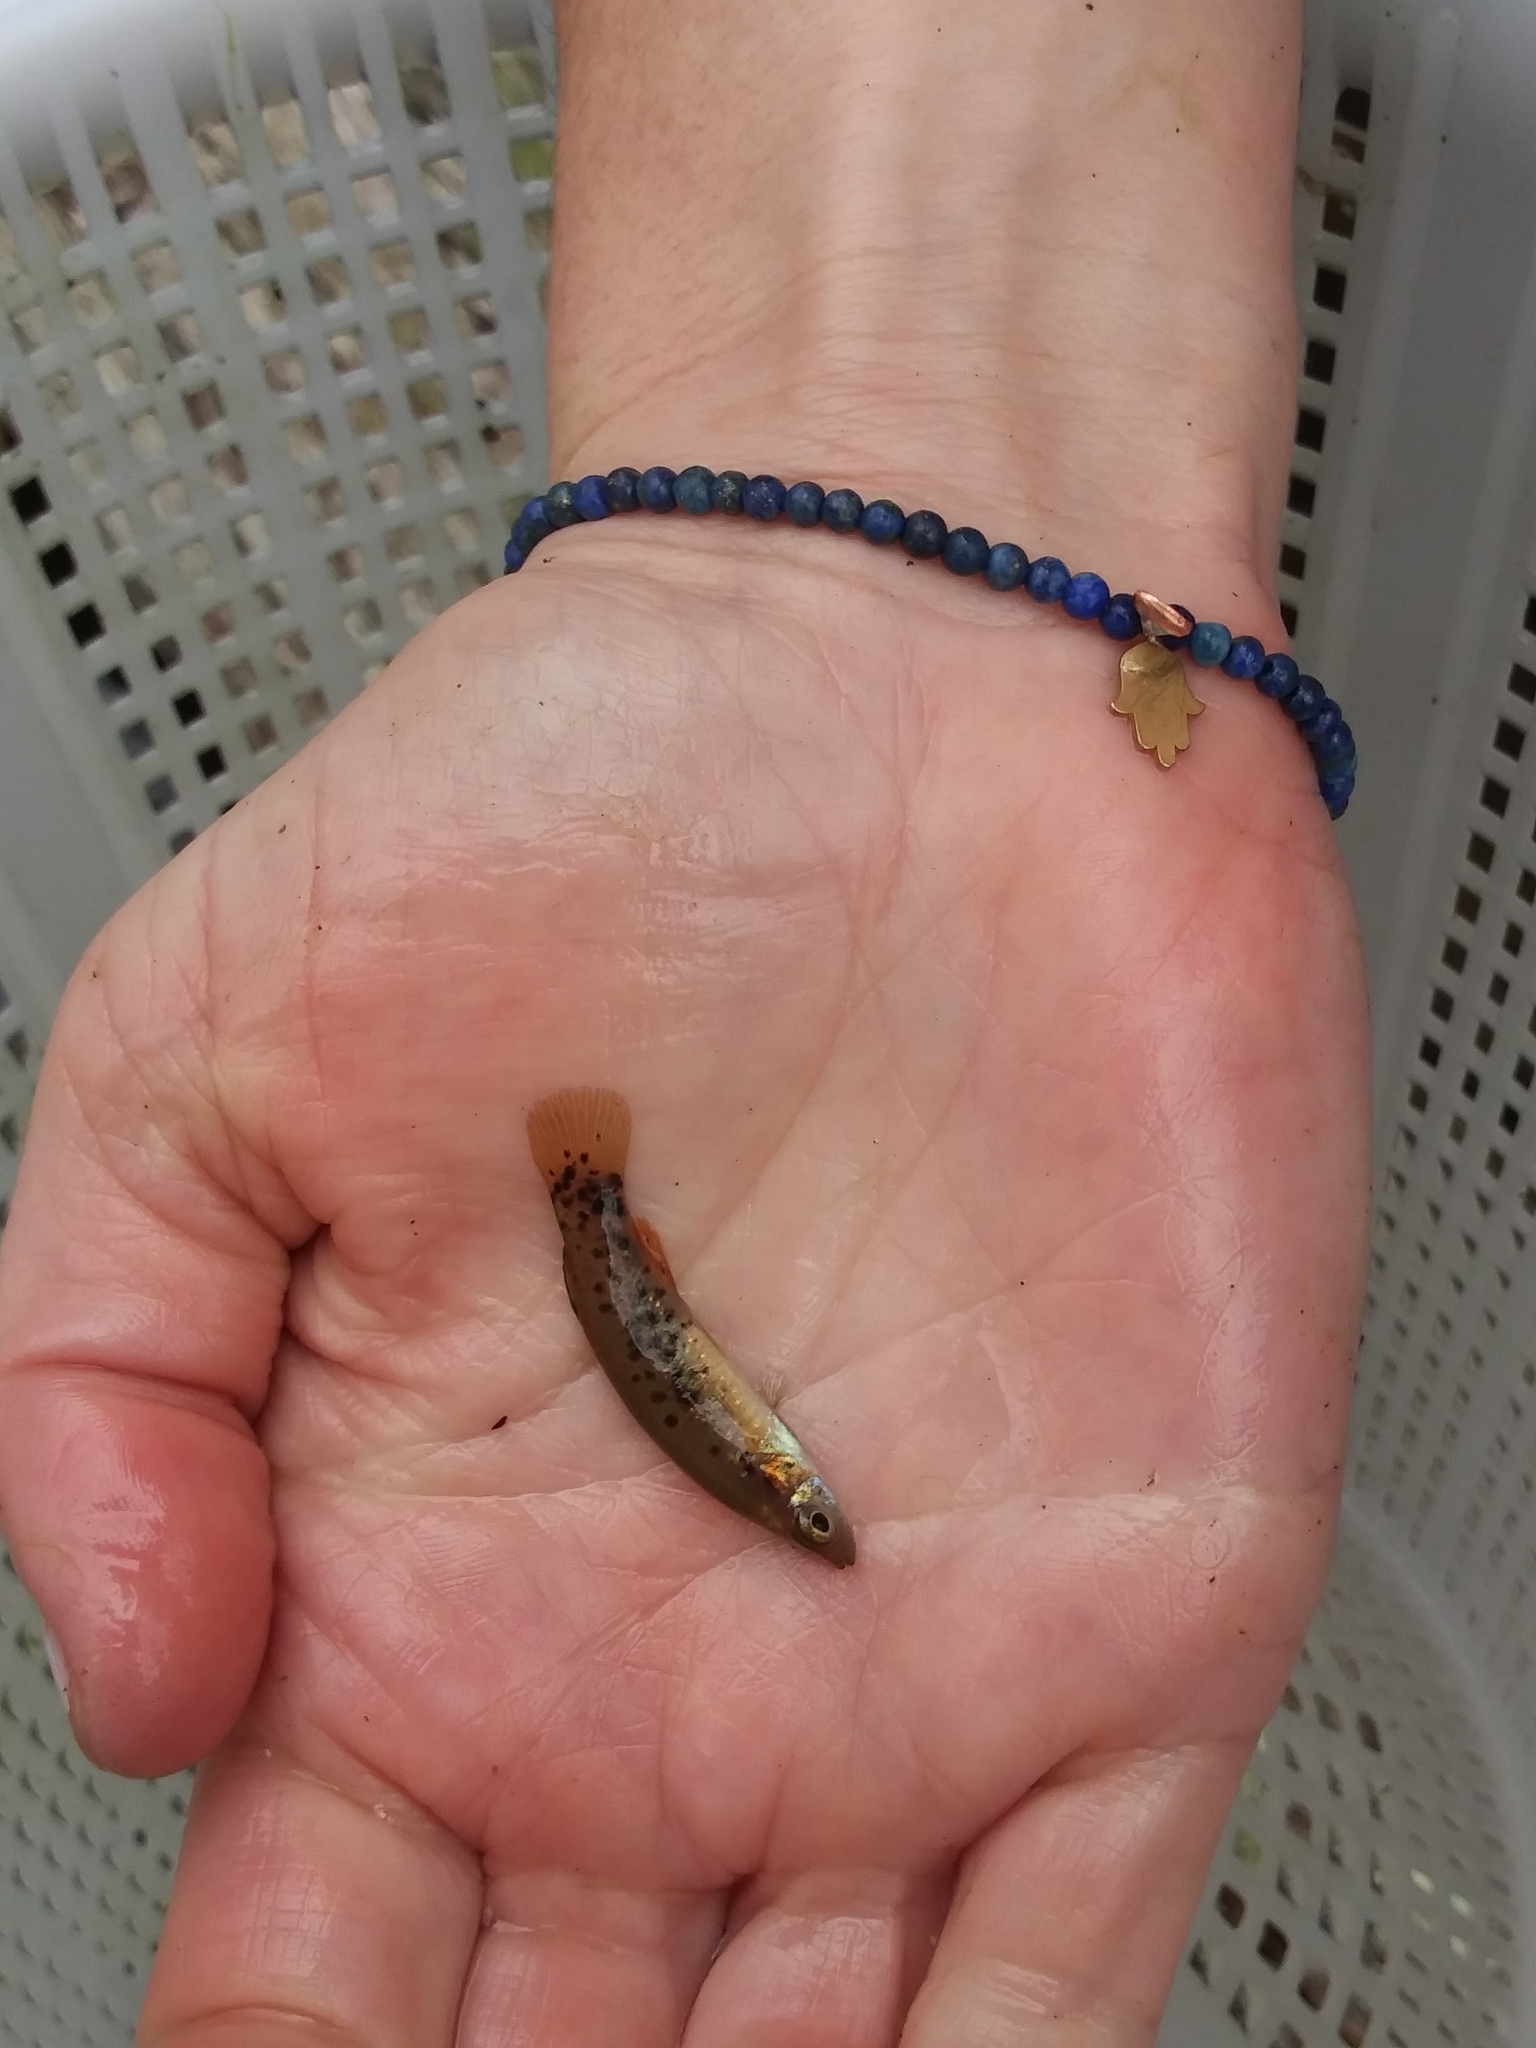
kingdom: Animalia
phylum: Chordata
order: Cyprinodontiformes
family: Fundulidae
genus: Fundulus
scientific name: Fundulus chrysotus
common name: Golden topminnow
